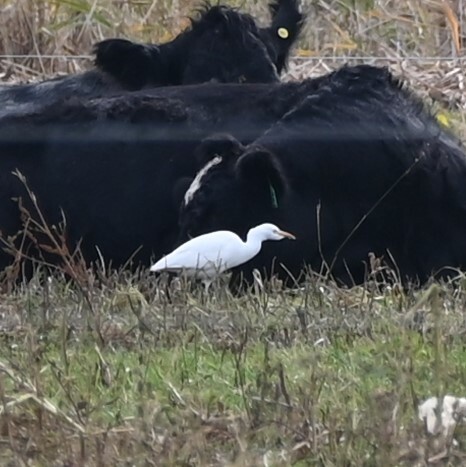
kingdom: Animalia
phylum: Chordata
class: Aves
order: Pelecaniformes
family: Ardeidae
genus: Bubulcus
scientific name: Bubulcus ibis
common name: Cattle egret
